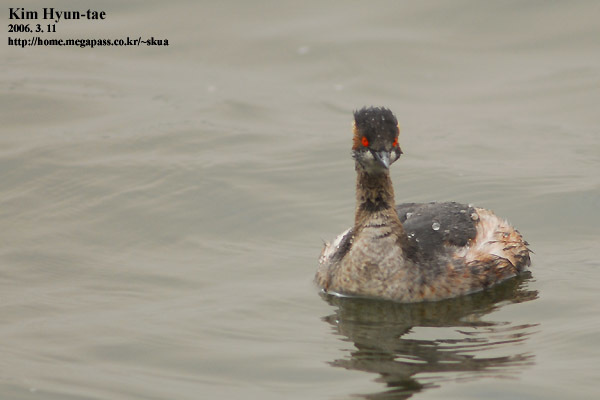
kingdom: Animalia
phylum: Chordata
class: Aves
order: Podicipediformes
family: Podicipedidae
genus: Podiceps
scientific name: Podiceps nigricollis
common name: Black-necked grebe
